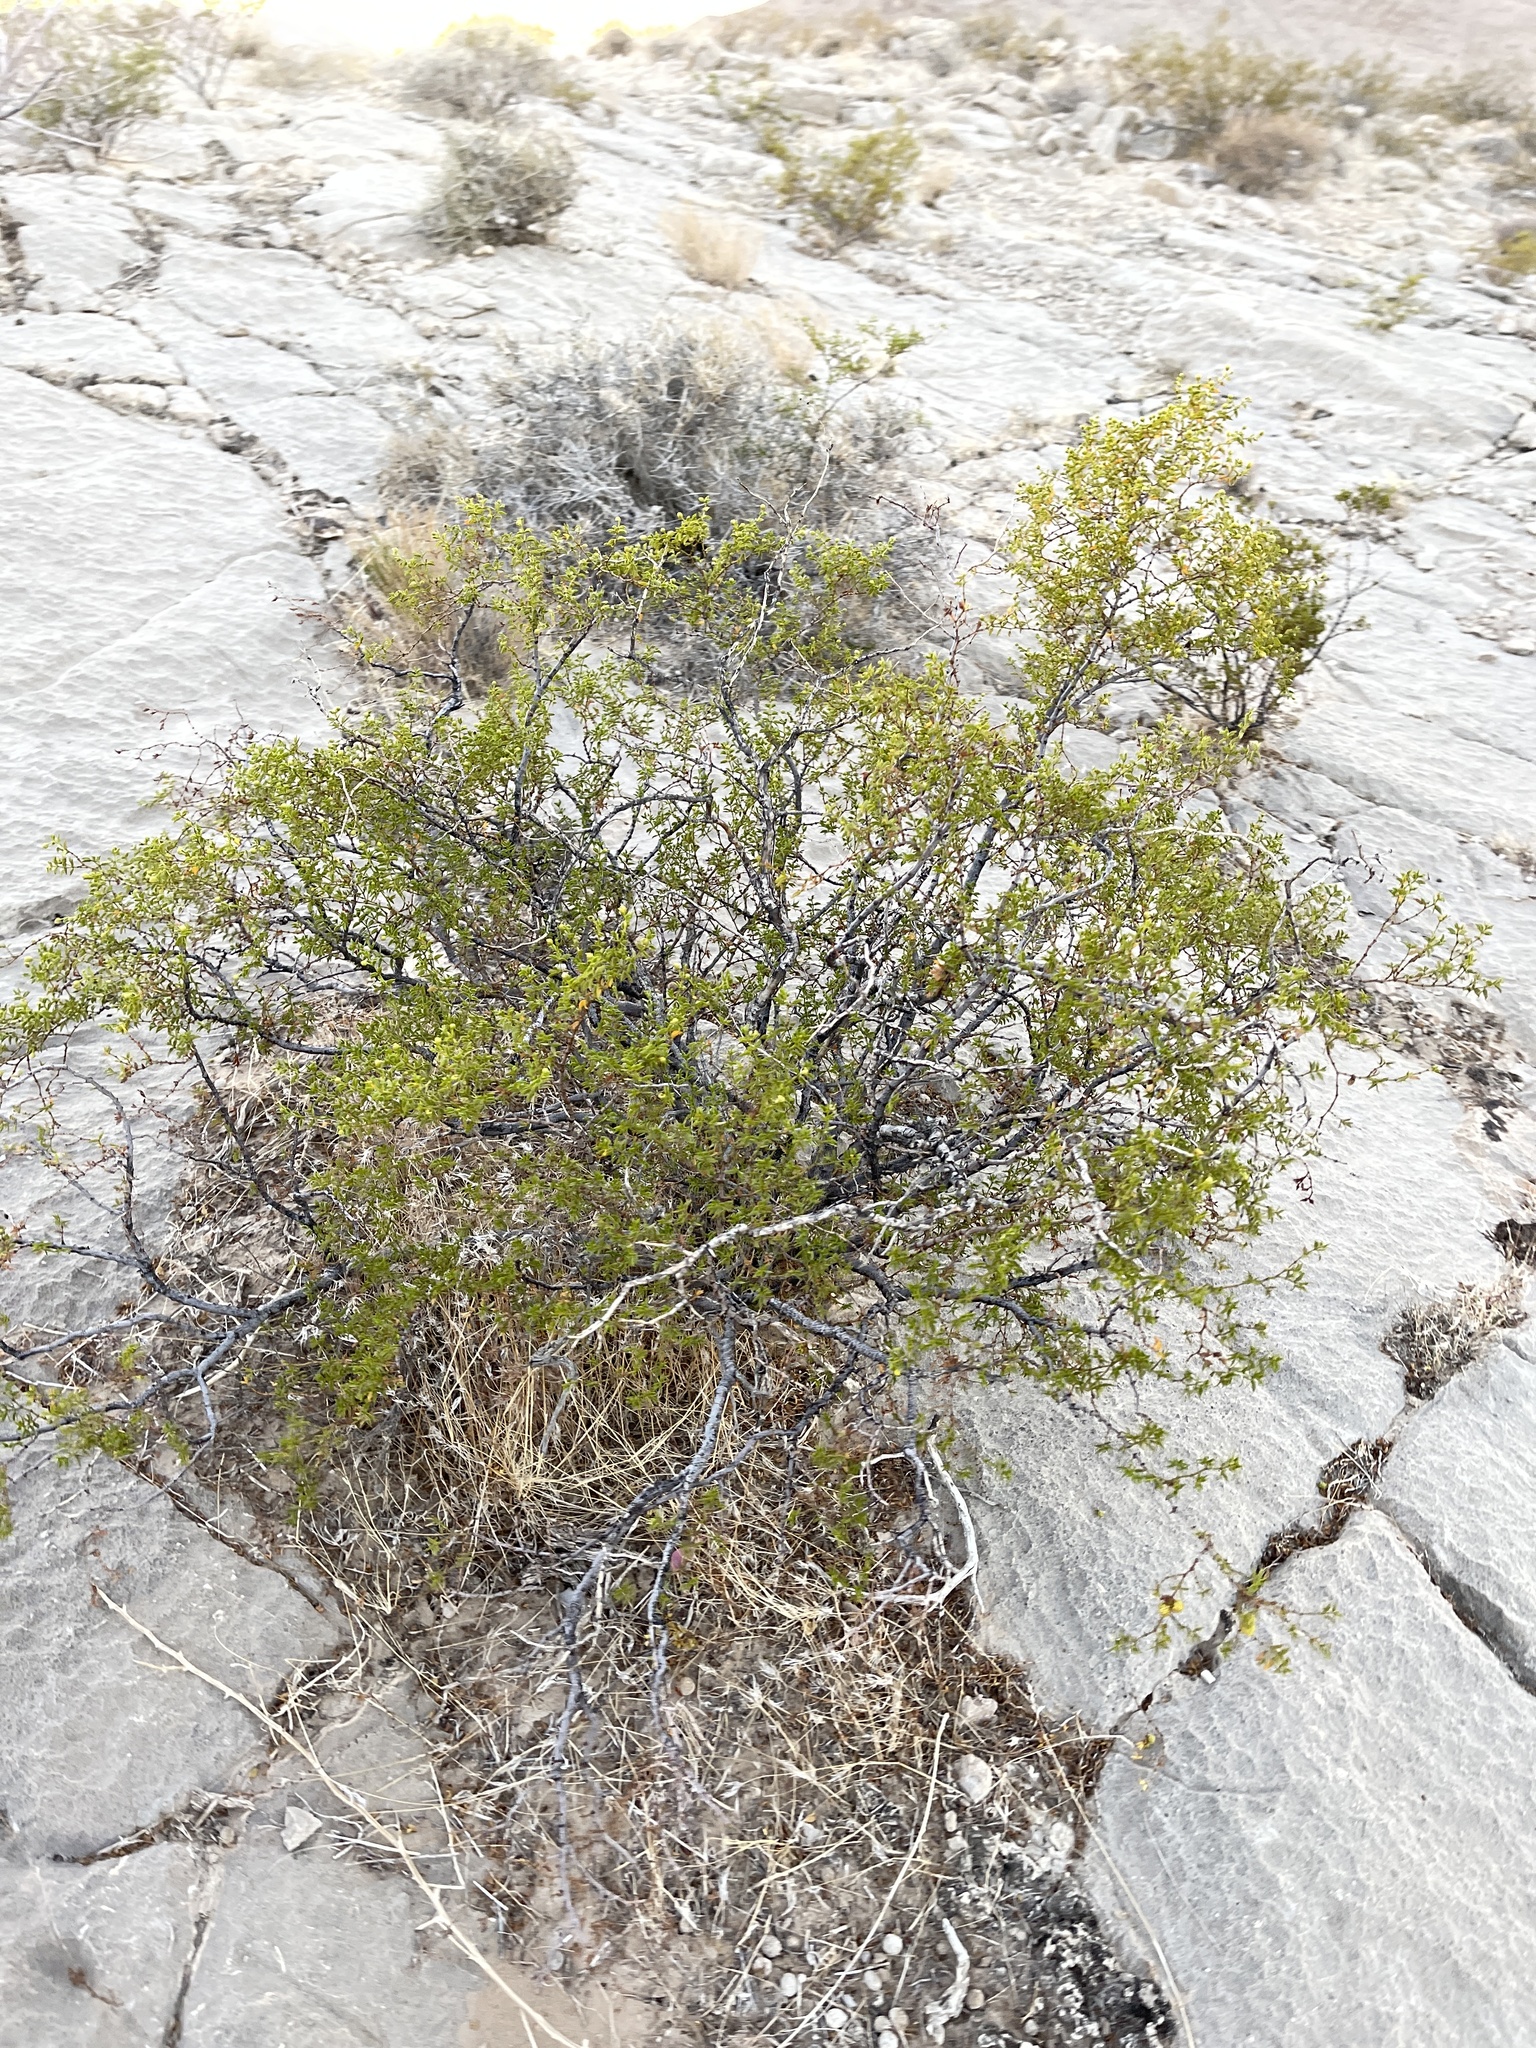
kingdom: Plantae
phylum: Tracheophyta
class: Magnoliopsida
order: Zygophyllales
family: Zygophyllaceae
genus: Larrea
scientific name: Larrea tridentata
